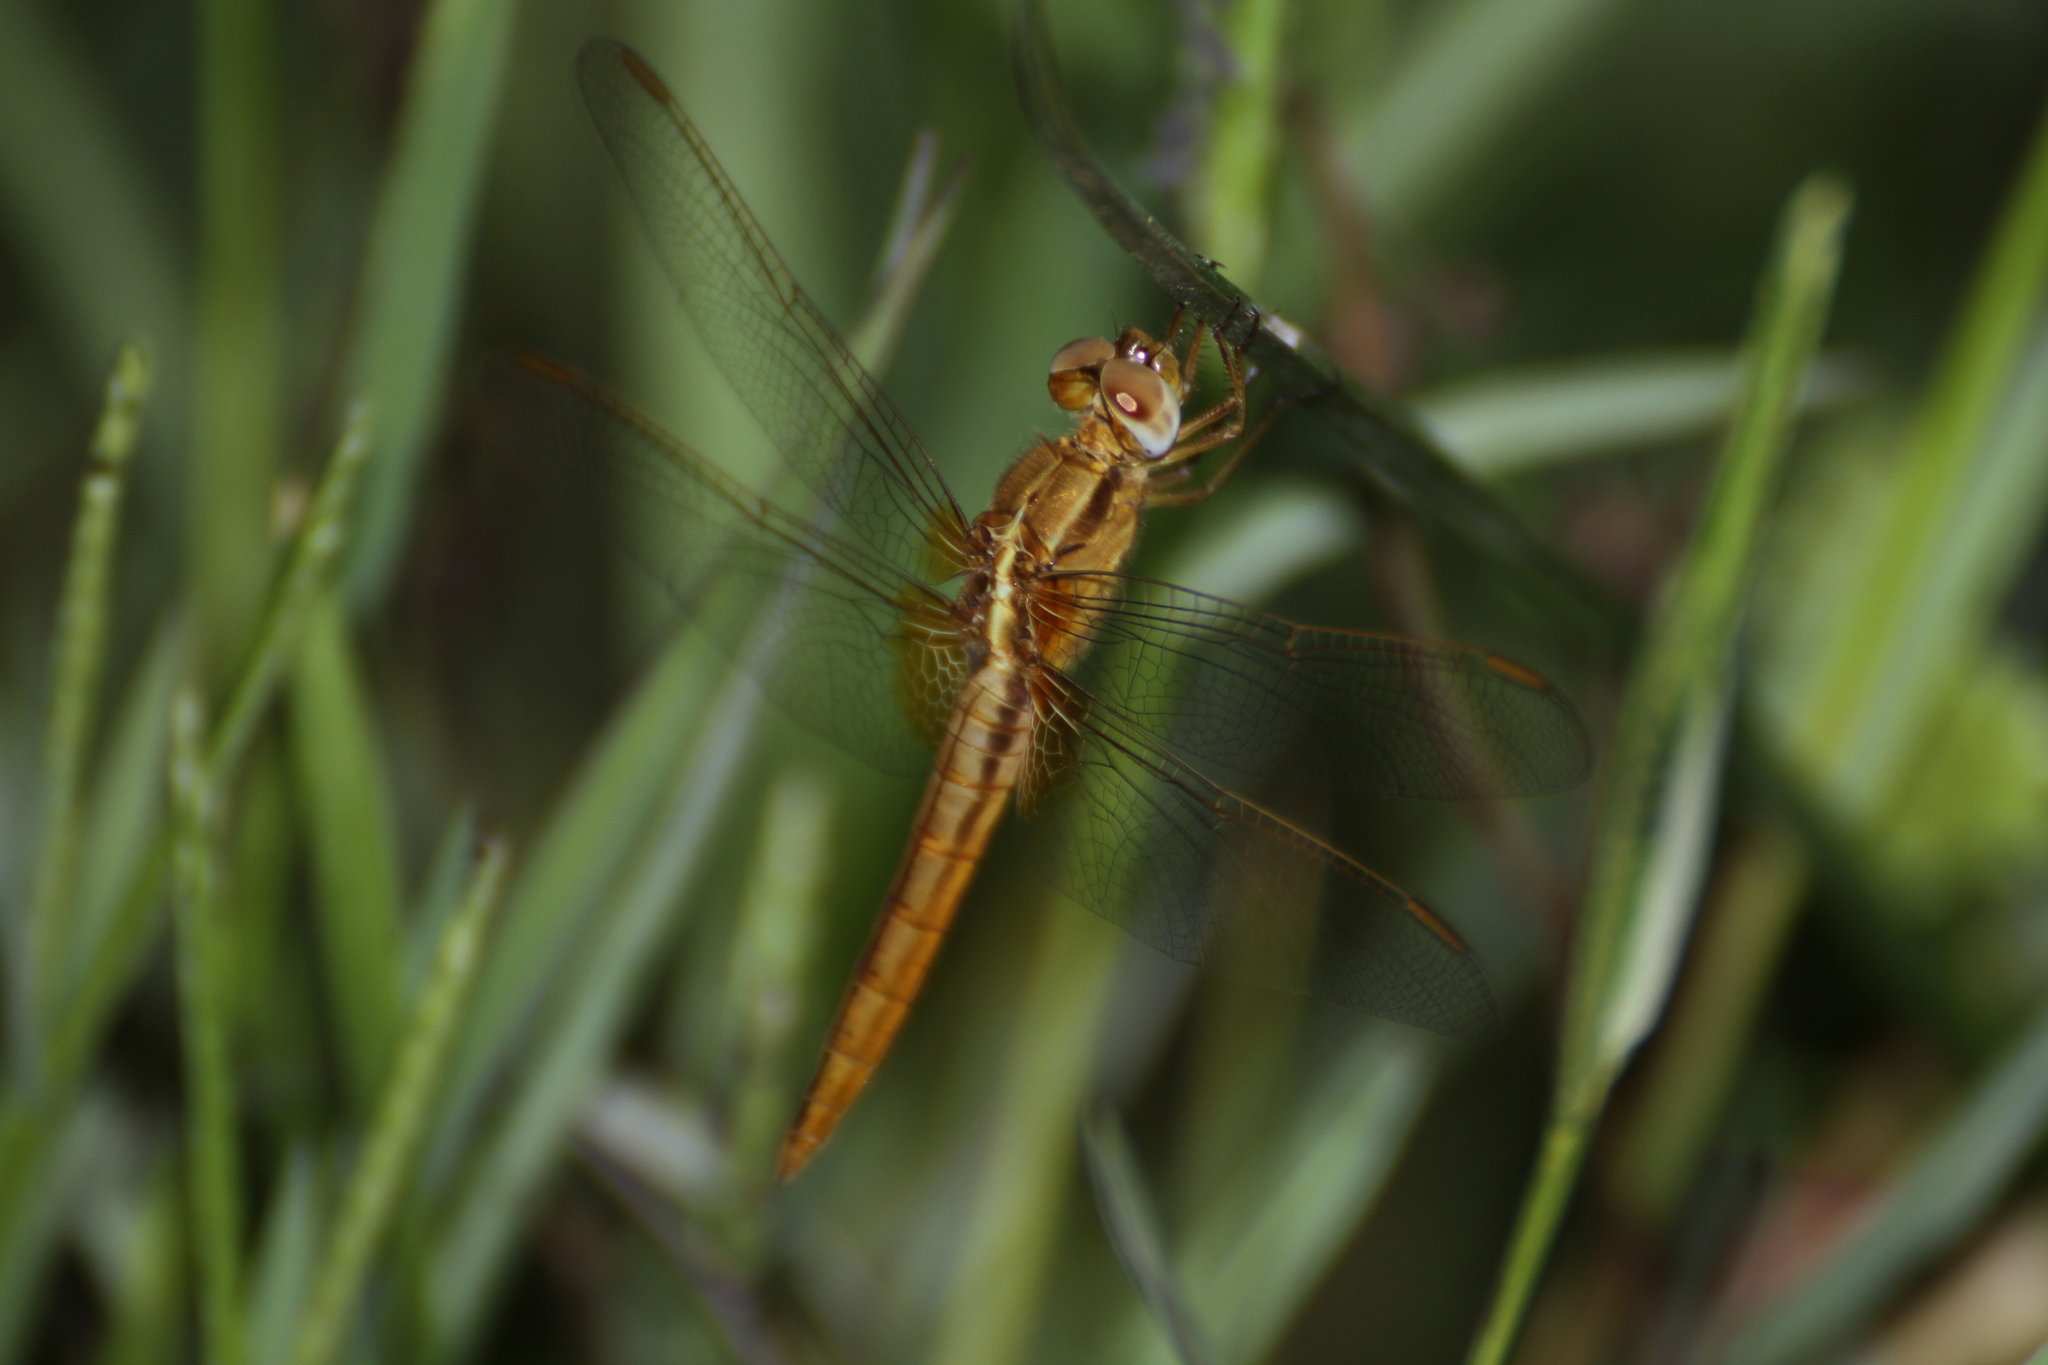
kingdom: Animalia
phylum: Arthropoda
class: Insecta
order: Odonata
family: Libellulidae
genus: Crocothemis
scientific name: Crocothemis erythraea
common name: Scarlet dragonfly
